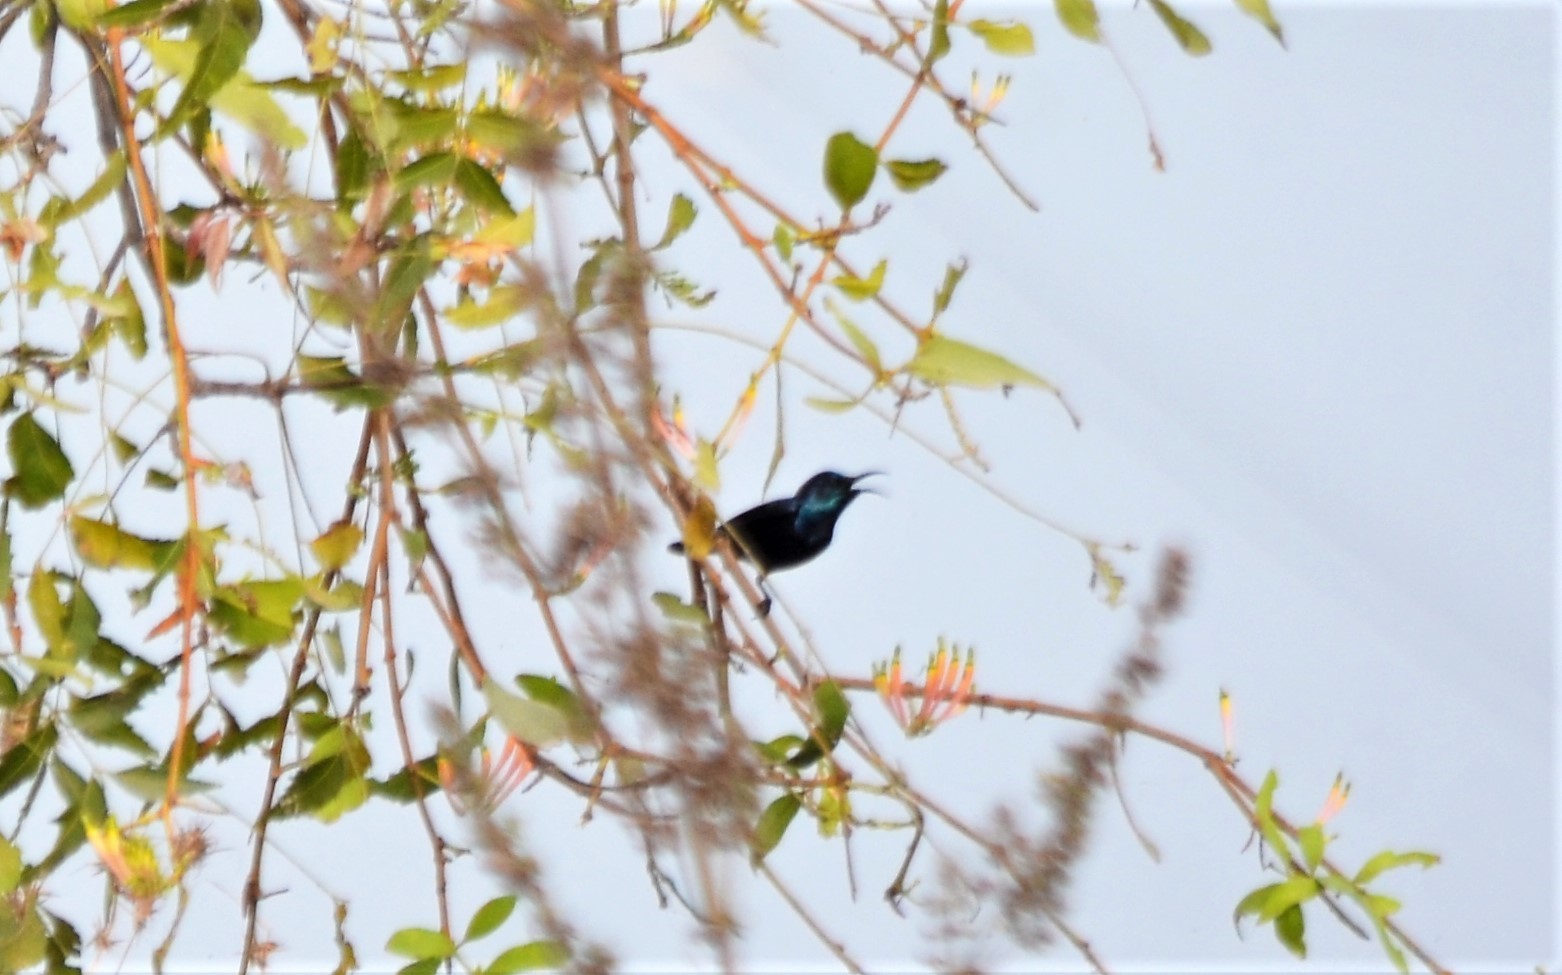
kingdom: Animalia
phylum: Chordata
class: Aves
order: Passeriformes
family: Nectariniidae
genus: Cinnyris
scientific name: Cinnyris asiaticus
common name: Purple sunbird
